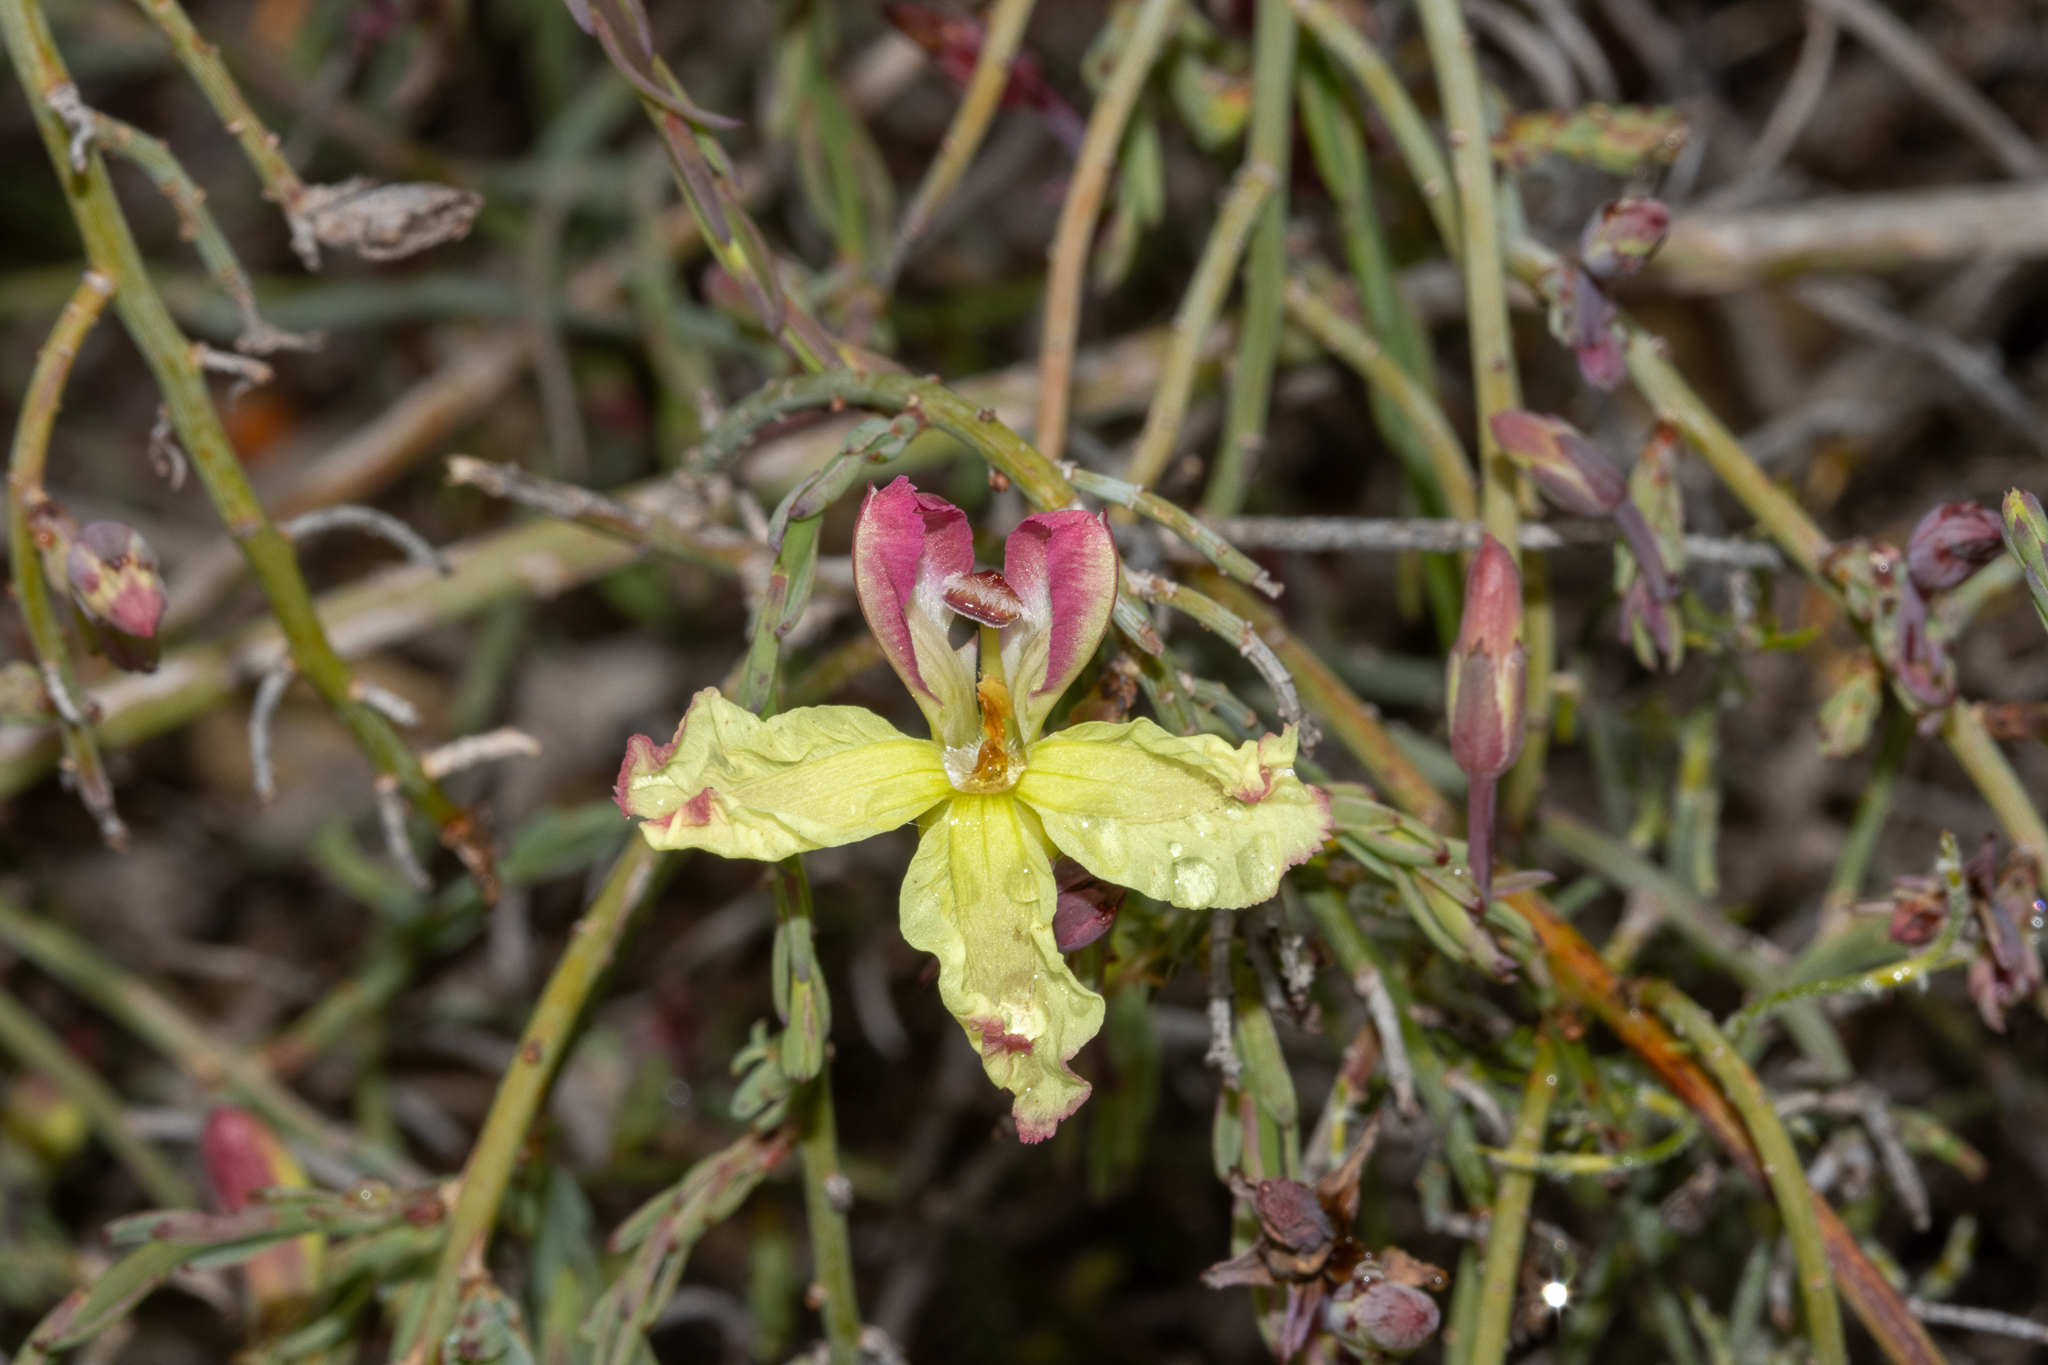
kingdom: Plantae
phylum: Tracheophyta
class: Magnoliopsida
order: Asterales
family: Goodeniaceae
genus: Lechenaultia
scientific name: Lechenaultia linarioides
